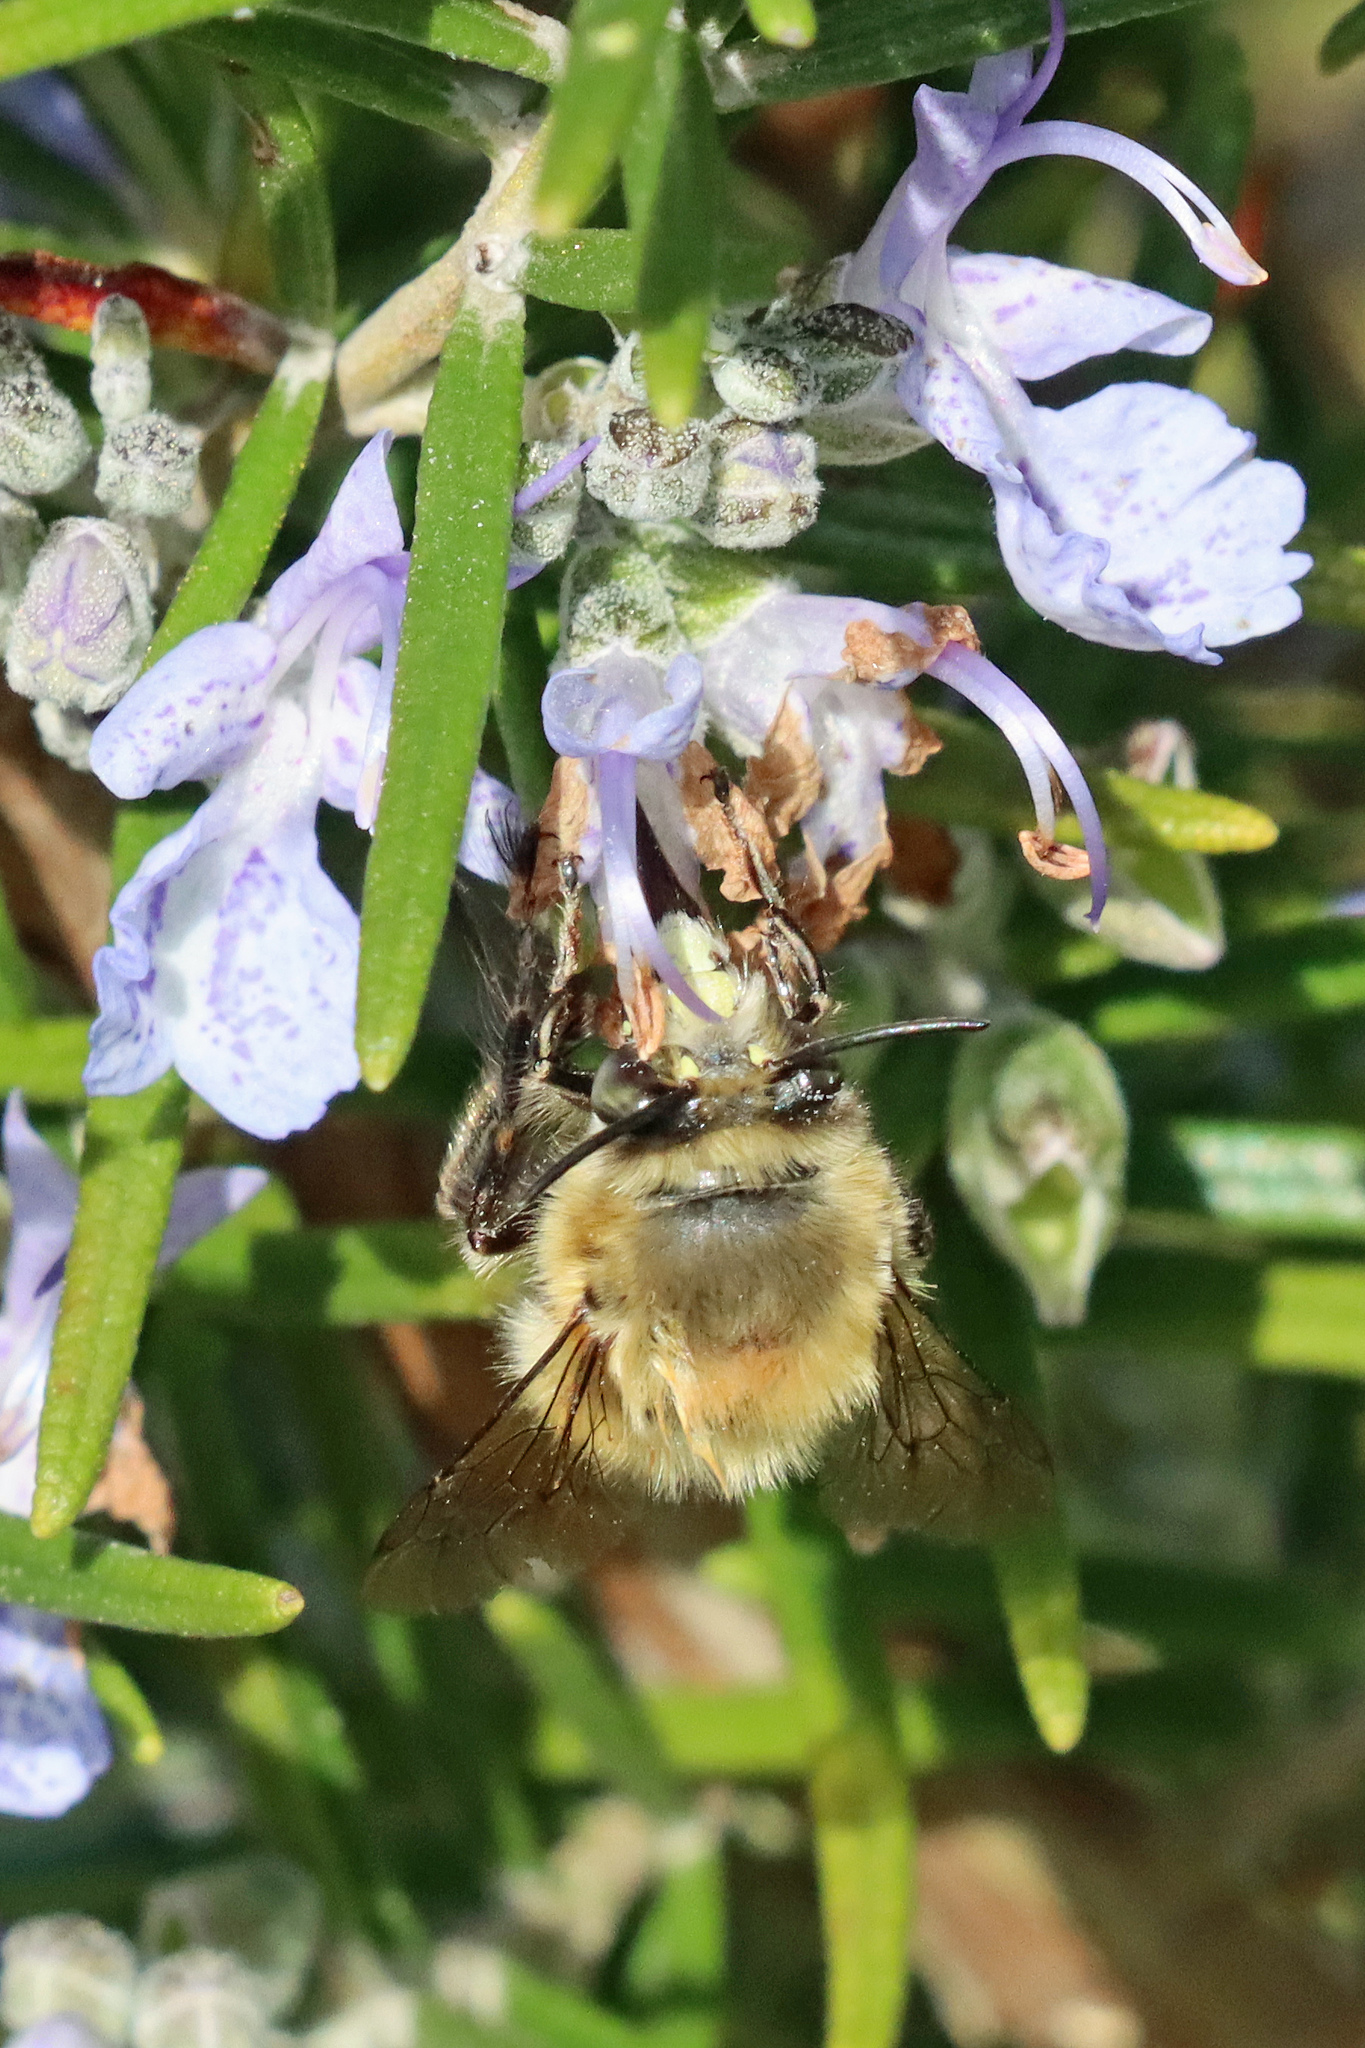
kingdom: Animalia
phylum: Arthropoda
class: Insecta
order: Hymenoptera
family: Apidae
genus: Anthophora
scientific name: Anthophora plumipes
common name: Hairy-footed flower bee
